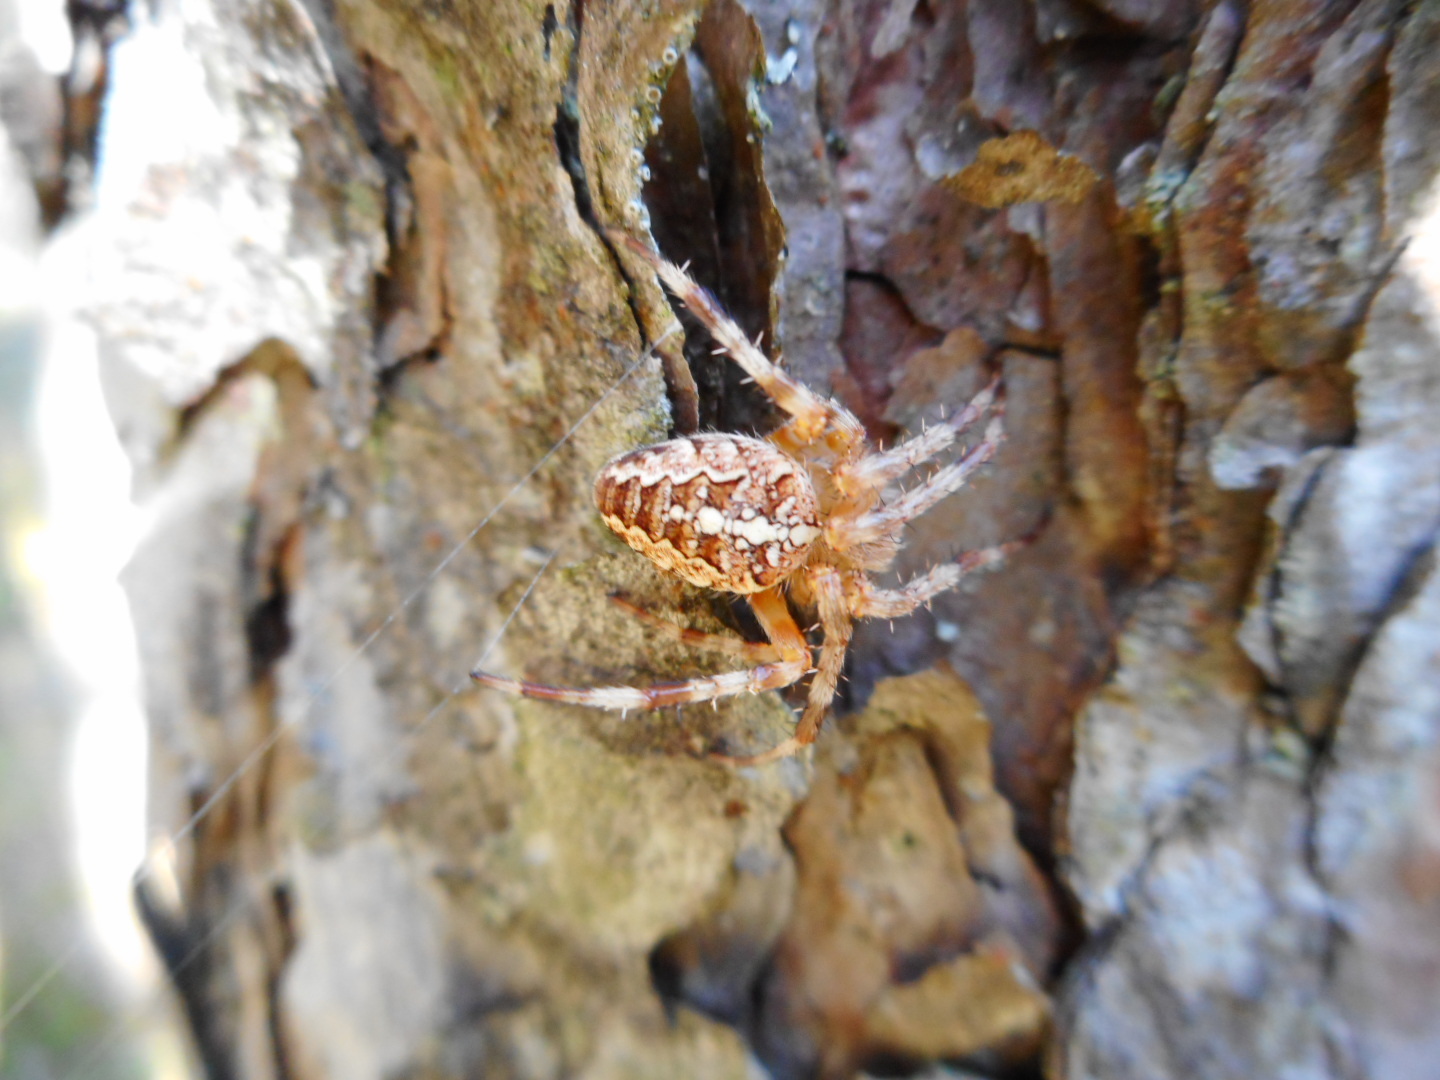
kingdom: Animalia
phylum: Arthropoda
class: Arachnida
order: Araneae
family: Araneidae
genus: Araneus
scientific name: Araneus diadematus
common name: Cross orbweaver
